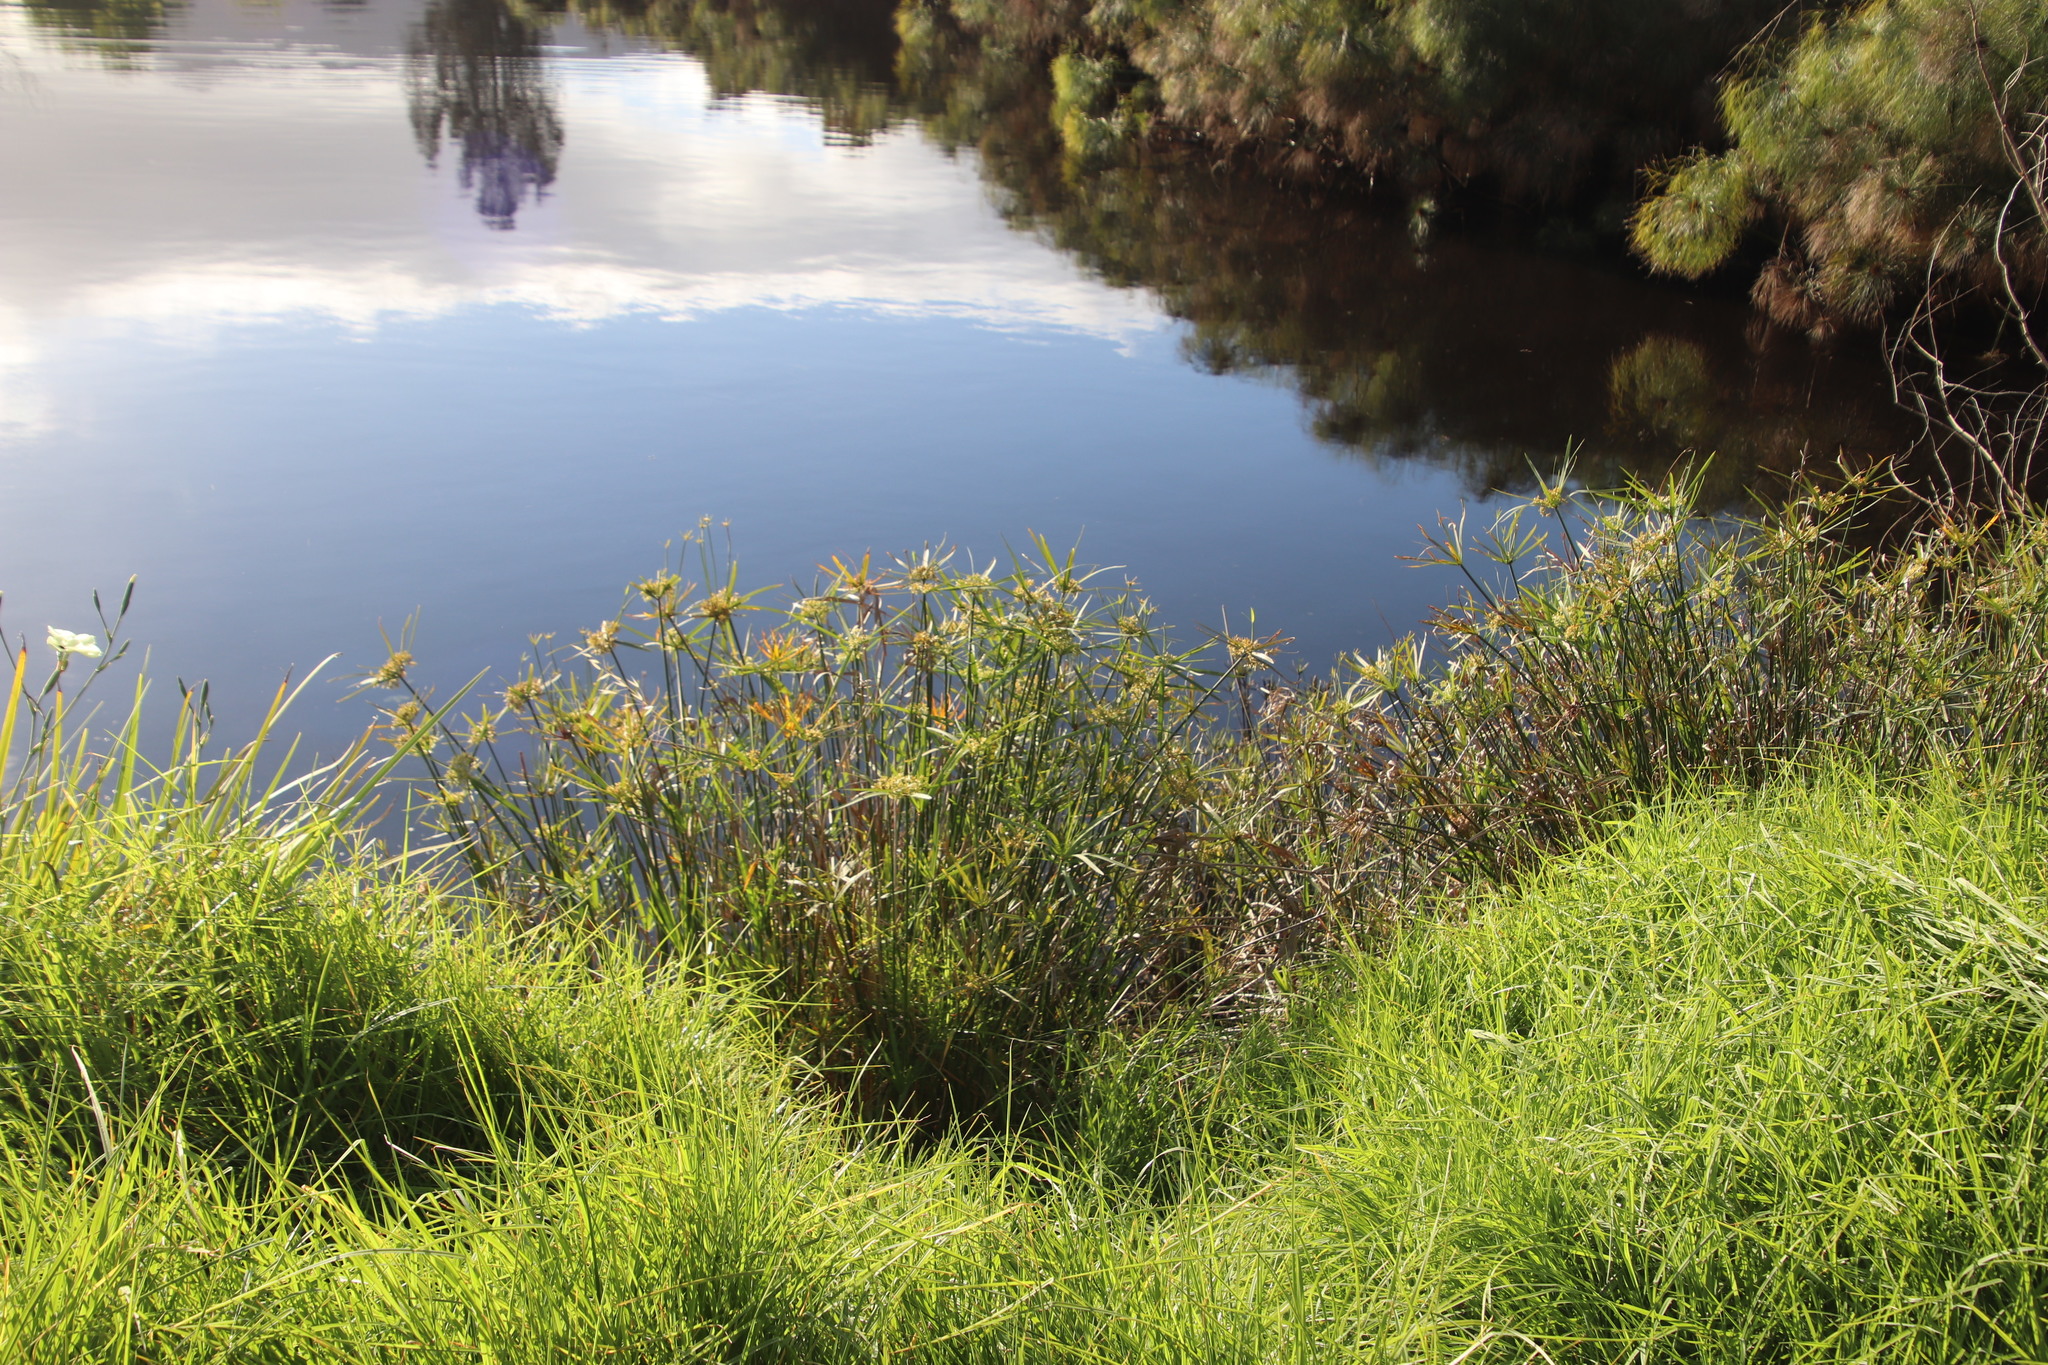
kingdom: Plantae
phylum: Tracheophyta
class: Liliopsida
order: Poales
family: Cyperaceae
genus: Cyperus
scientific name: Cyperus textilis
